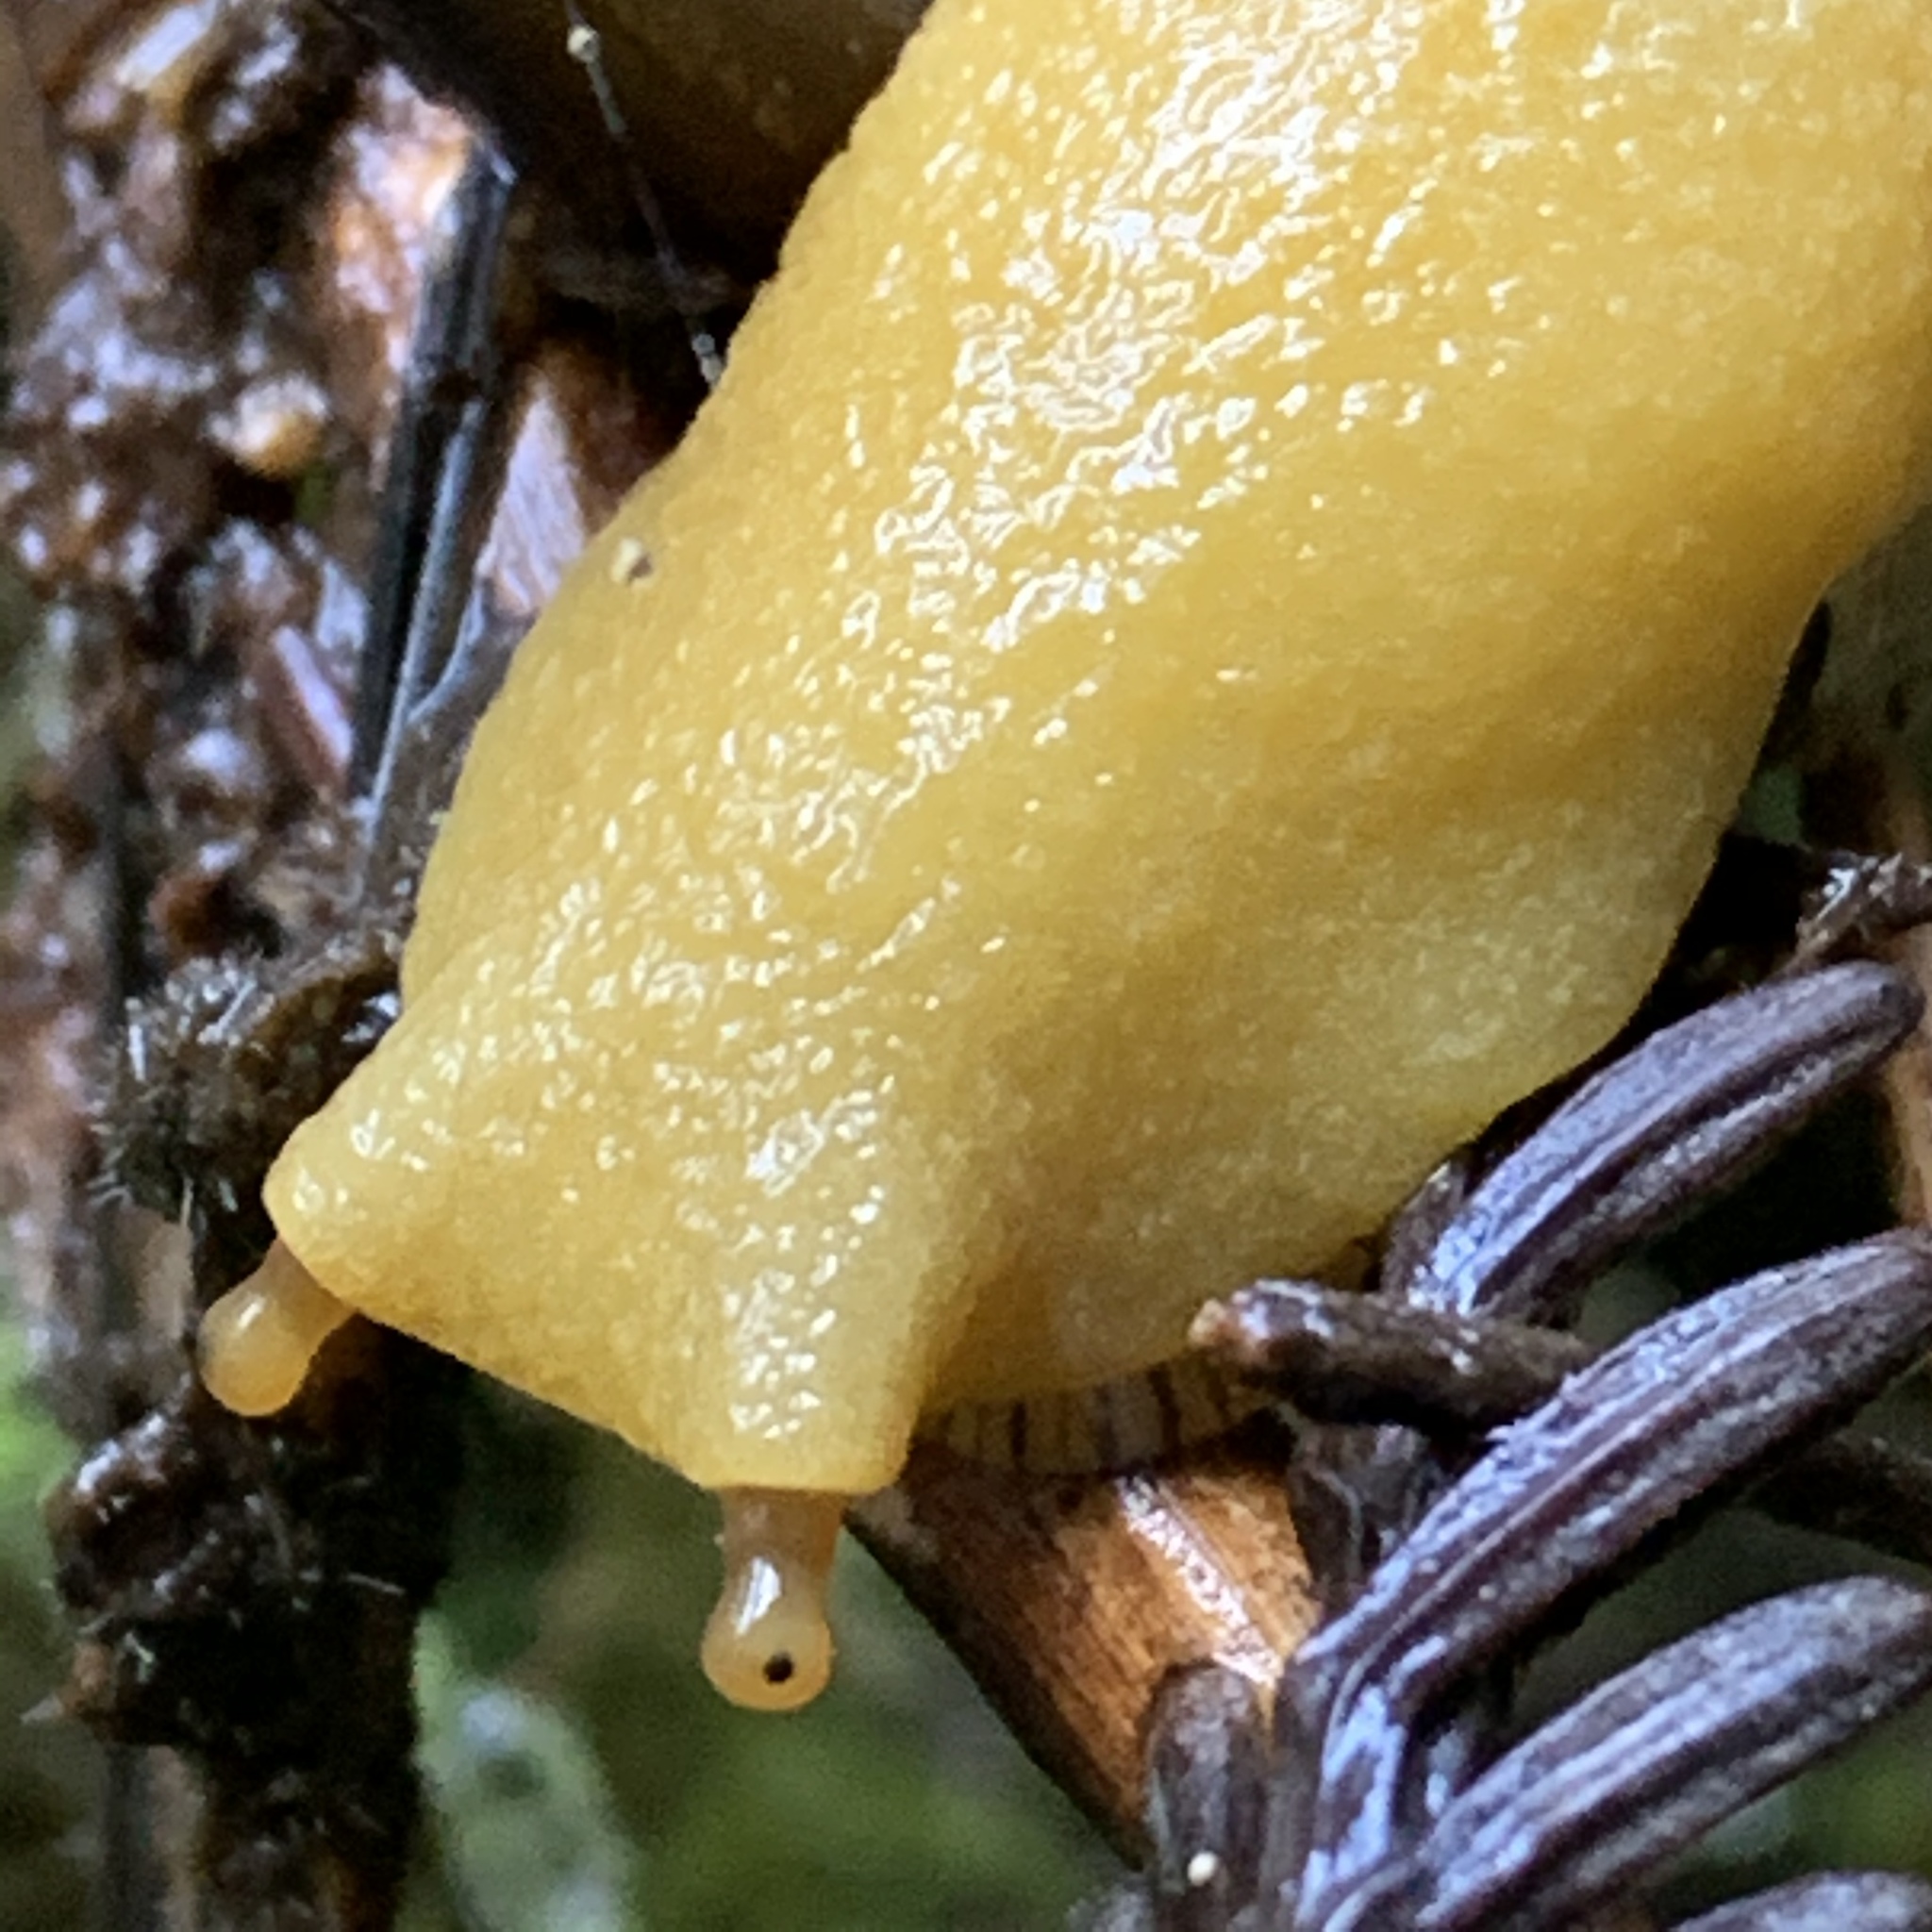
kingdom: Animalia
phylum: Mollusca
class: Gastropoda
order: Stylommatophora
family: Ariolimacidae
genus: Ariolimax
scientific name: Ariolimax buttoni
